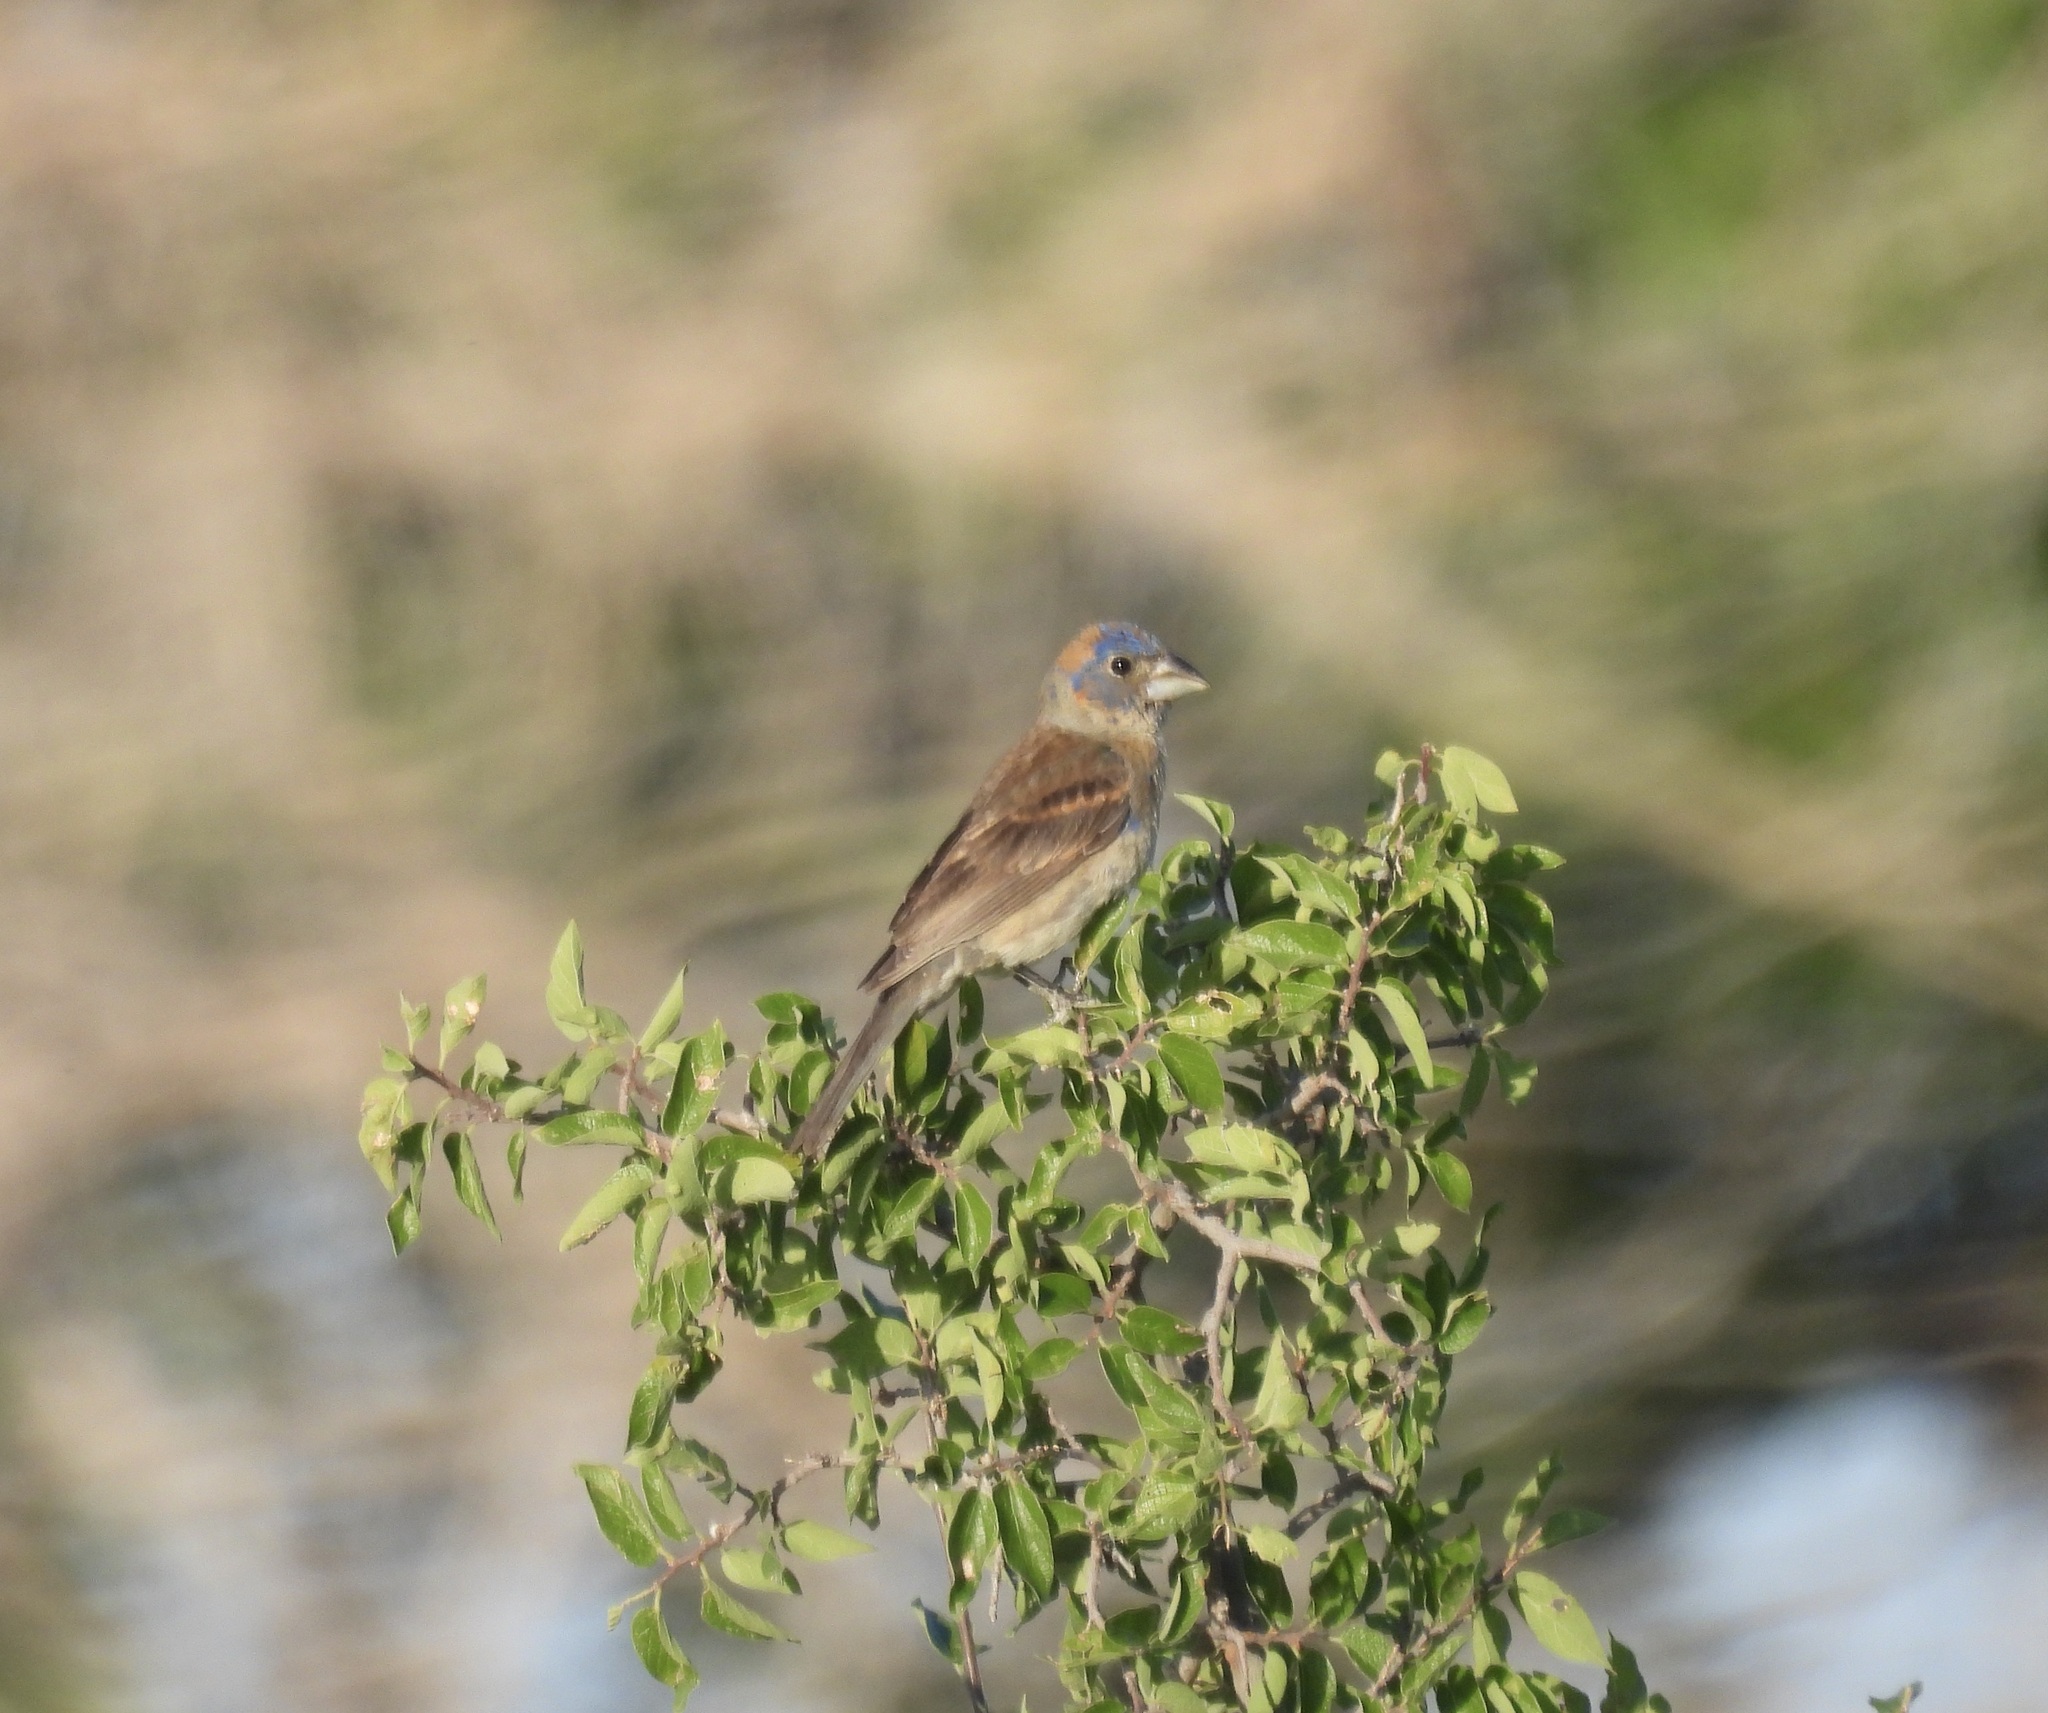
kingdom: Animalia
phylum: Chordata
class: Aves
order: Passeriformes
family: Cardinalidae
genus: Passerina
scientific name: Passerina caerulea
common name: Blue grosbeak
